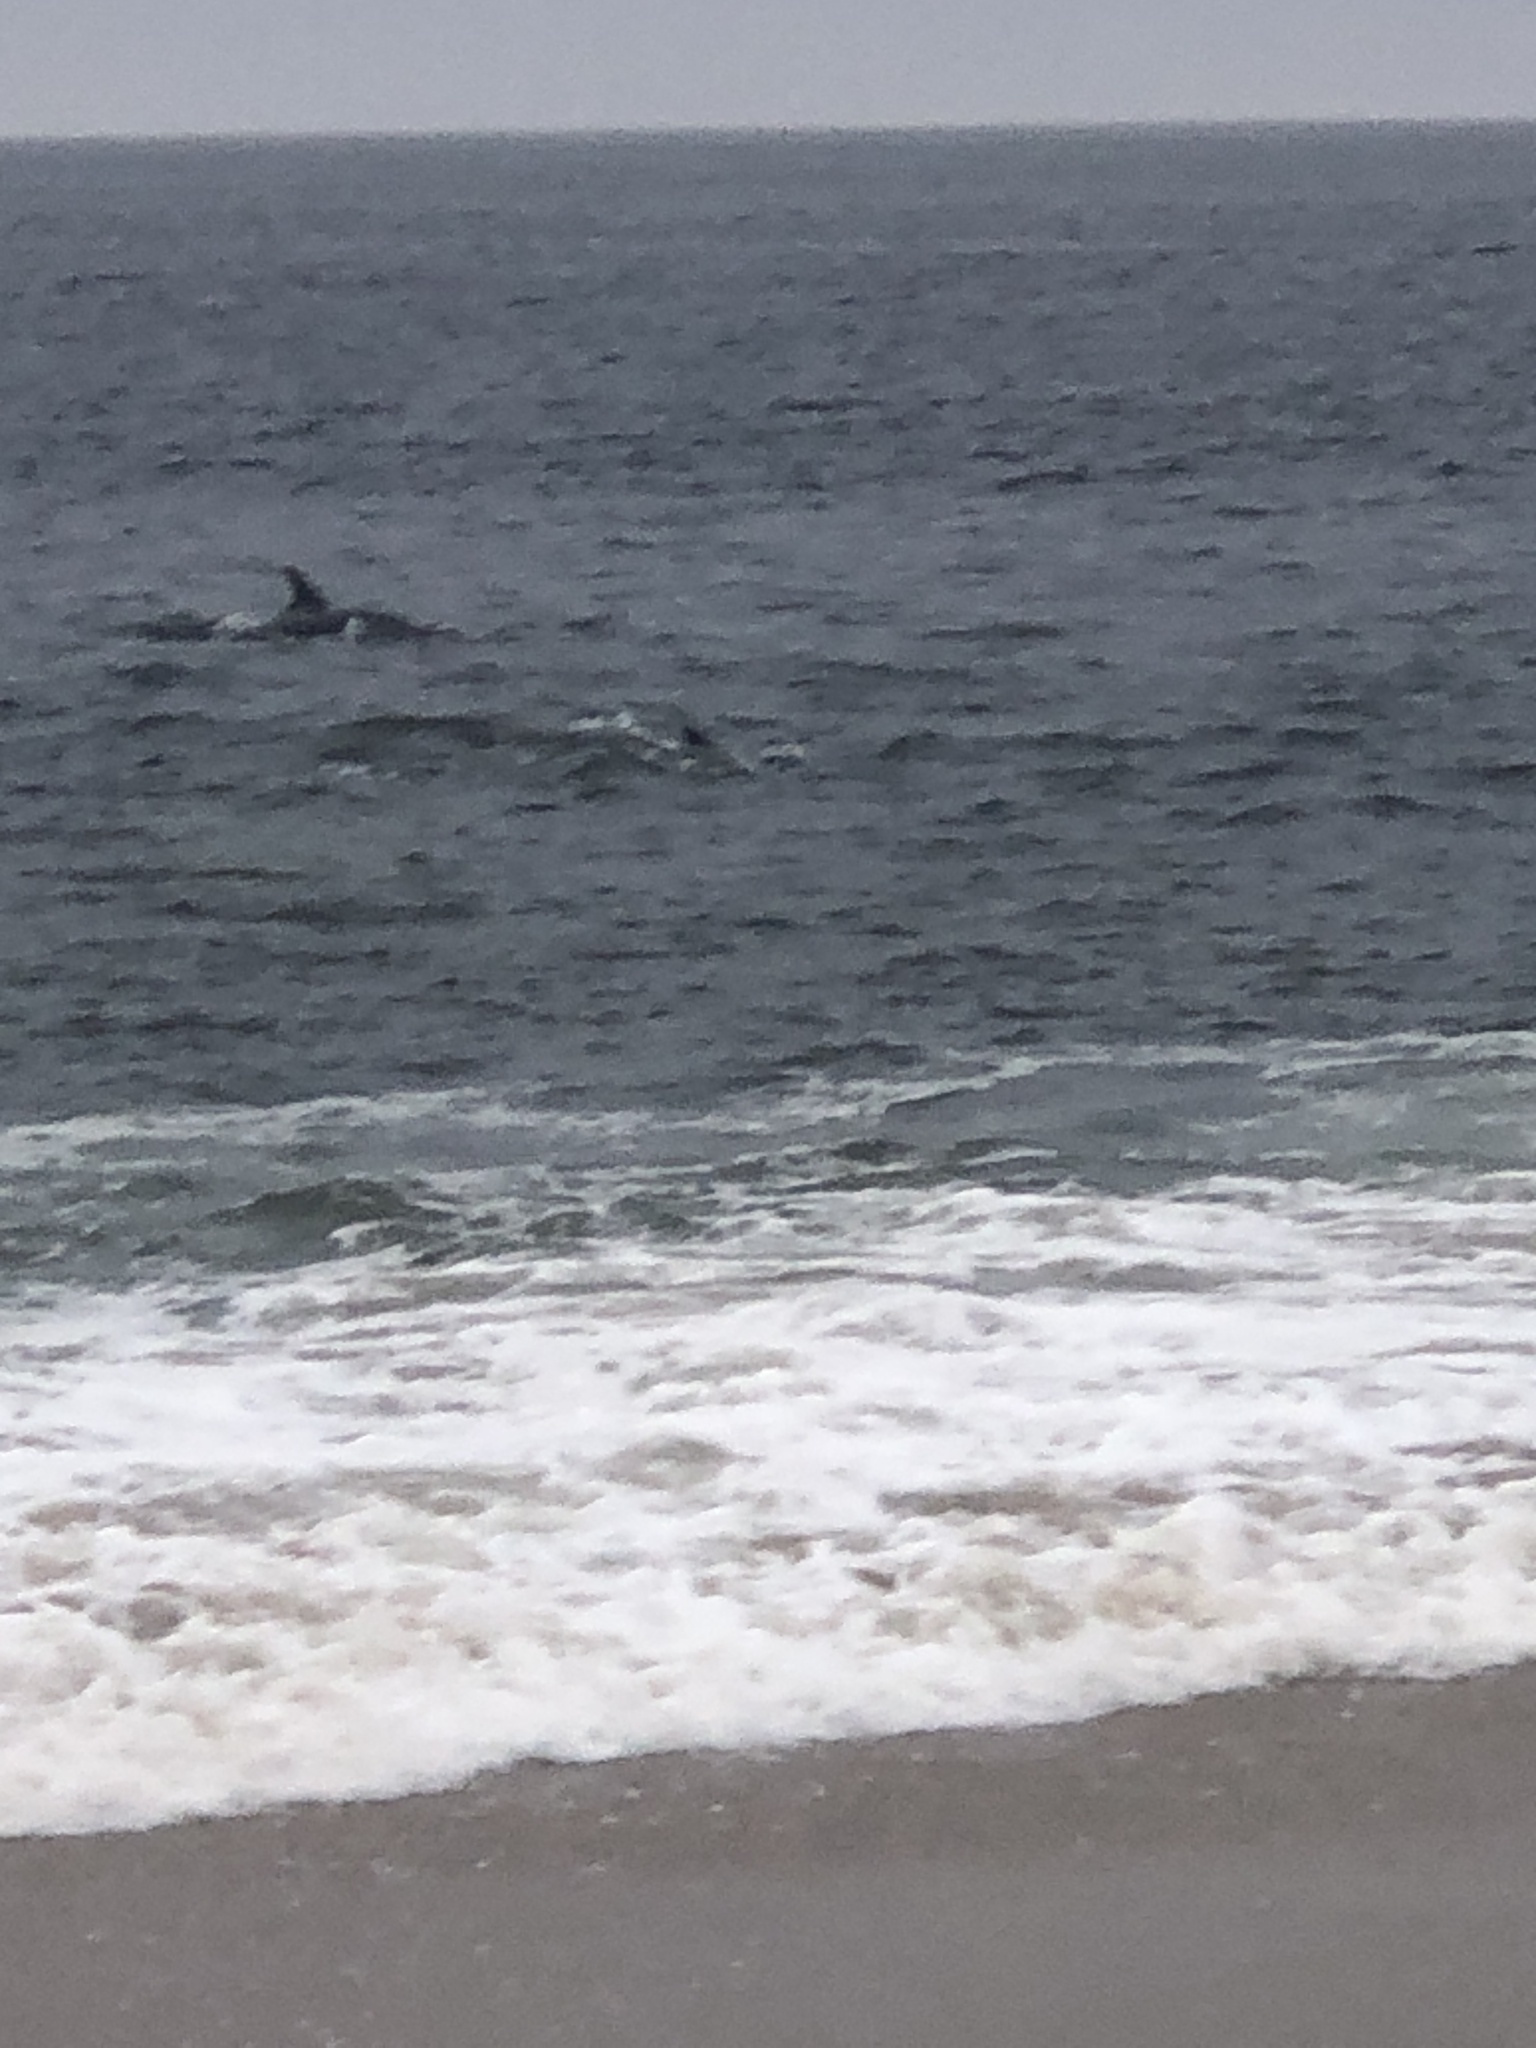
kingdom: Animalia
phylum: Chordata
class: Mammalia
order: Cetacea
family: Delphinidae
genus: Tursiops
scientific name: Tursiops truncatus
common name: Bottlenose dolphin
